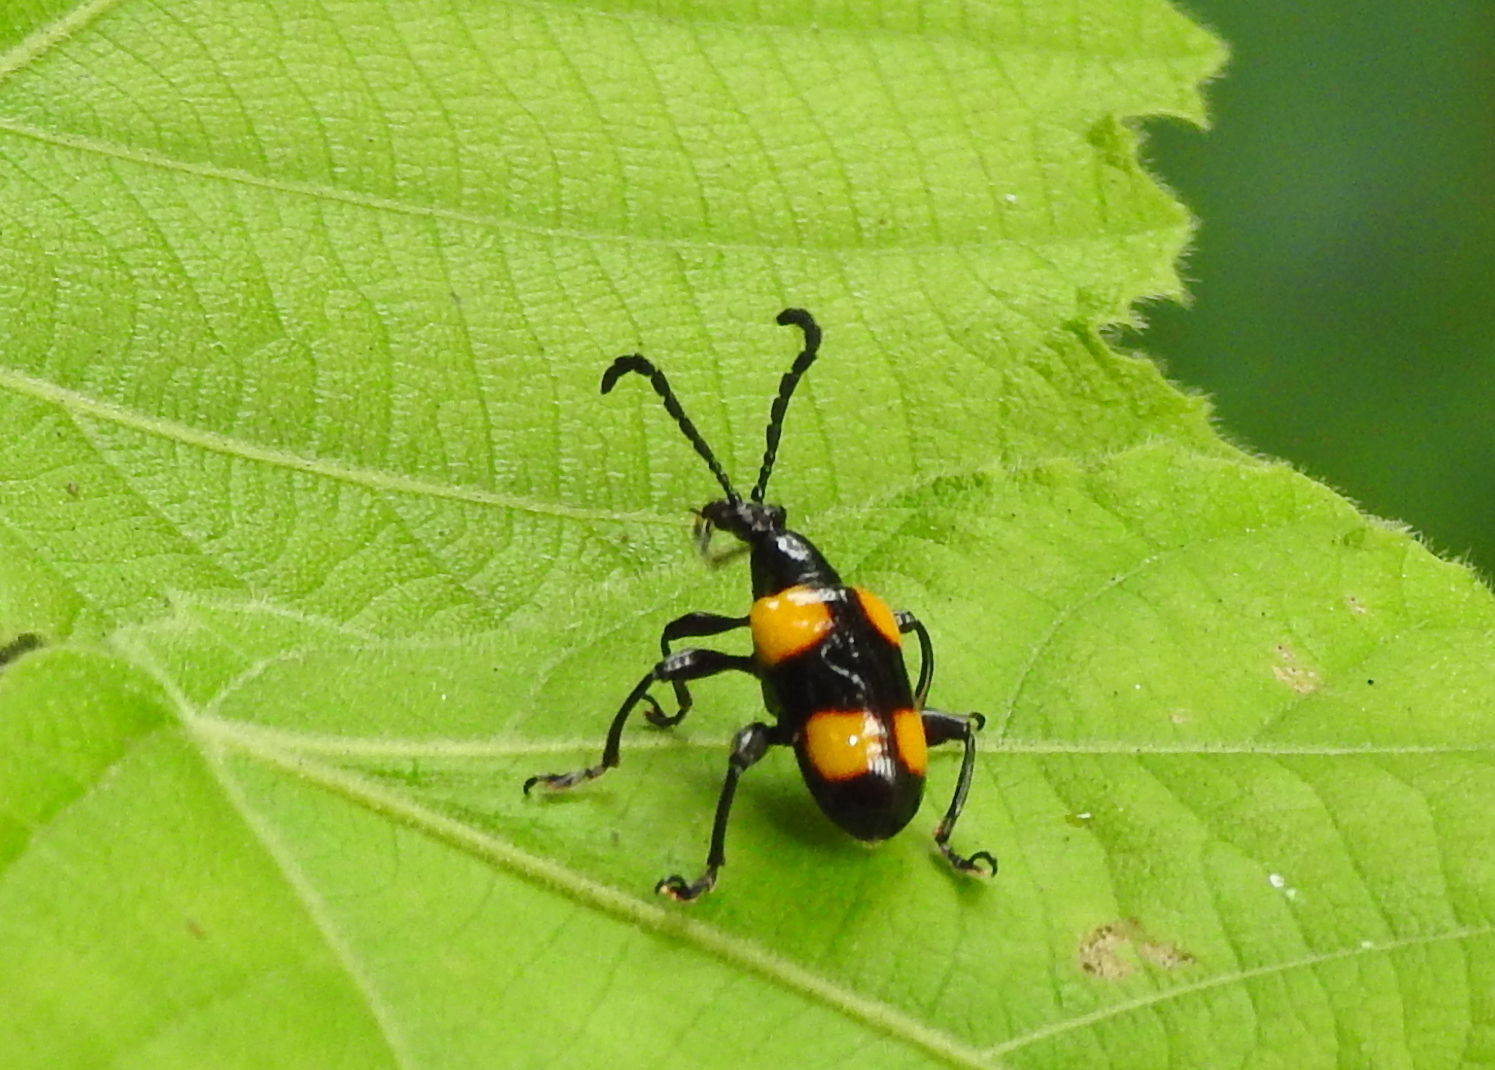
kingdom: Animalia
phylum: Arthropoda
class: Insecta
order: Coleoptera
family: Chrysomelidae
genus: Lilioceris
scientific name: Lilioceris
